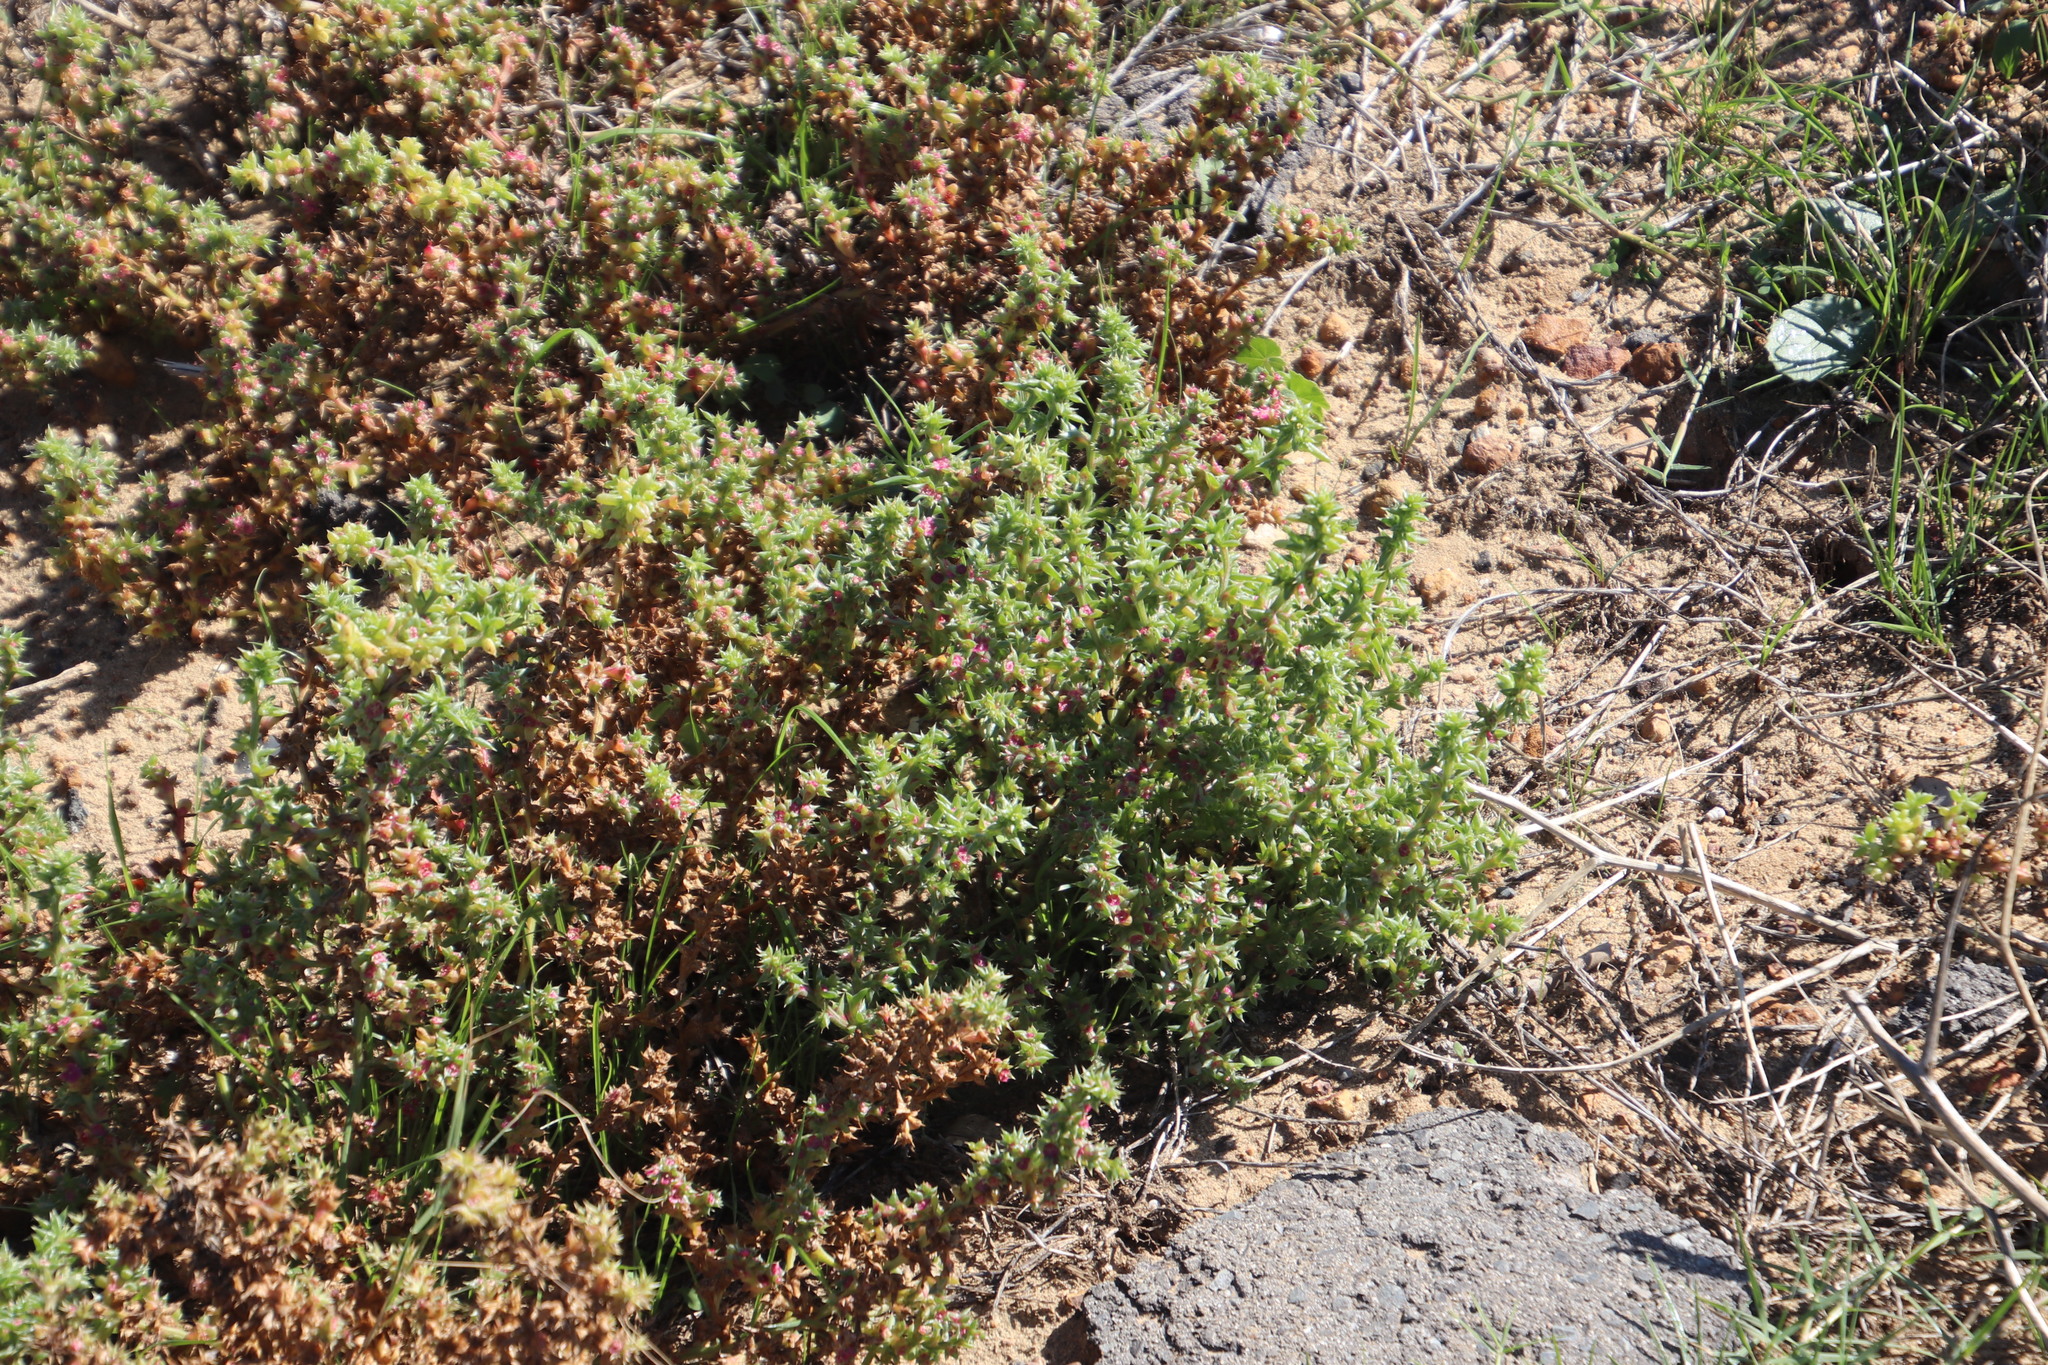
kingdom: Plantae
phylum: Tracheophyta
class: Magnoliopsida
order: Caryophyllales
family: Amaranthaceae
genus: Salsola
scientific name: Salsola kali
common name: Saltwort
